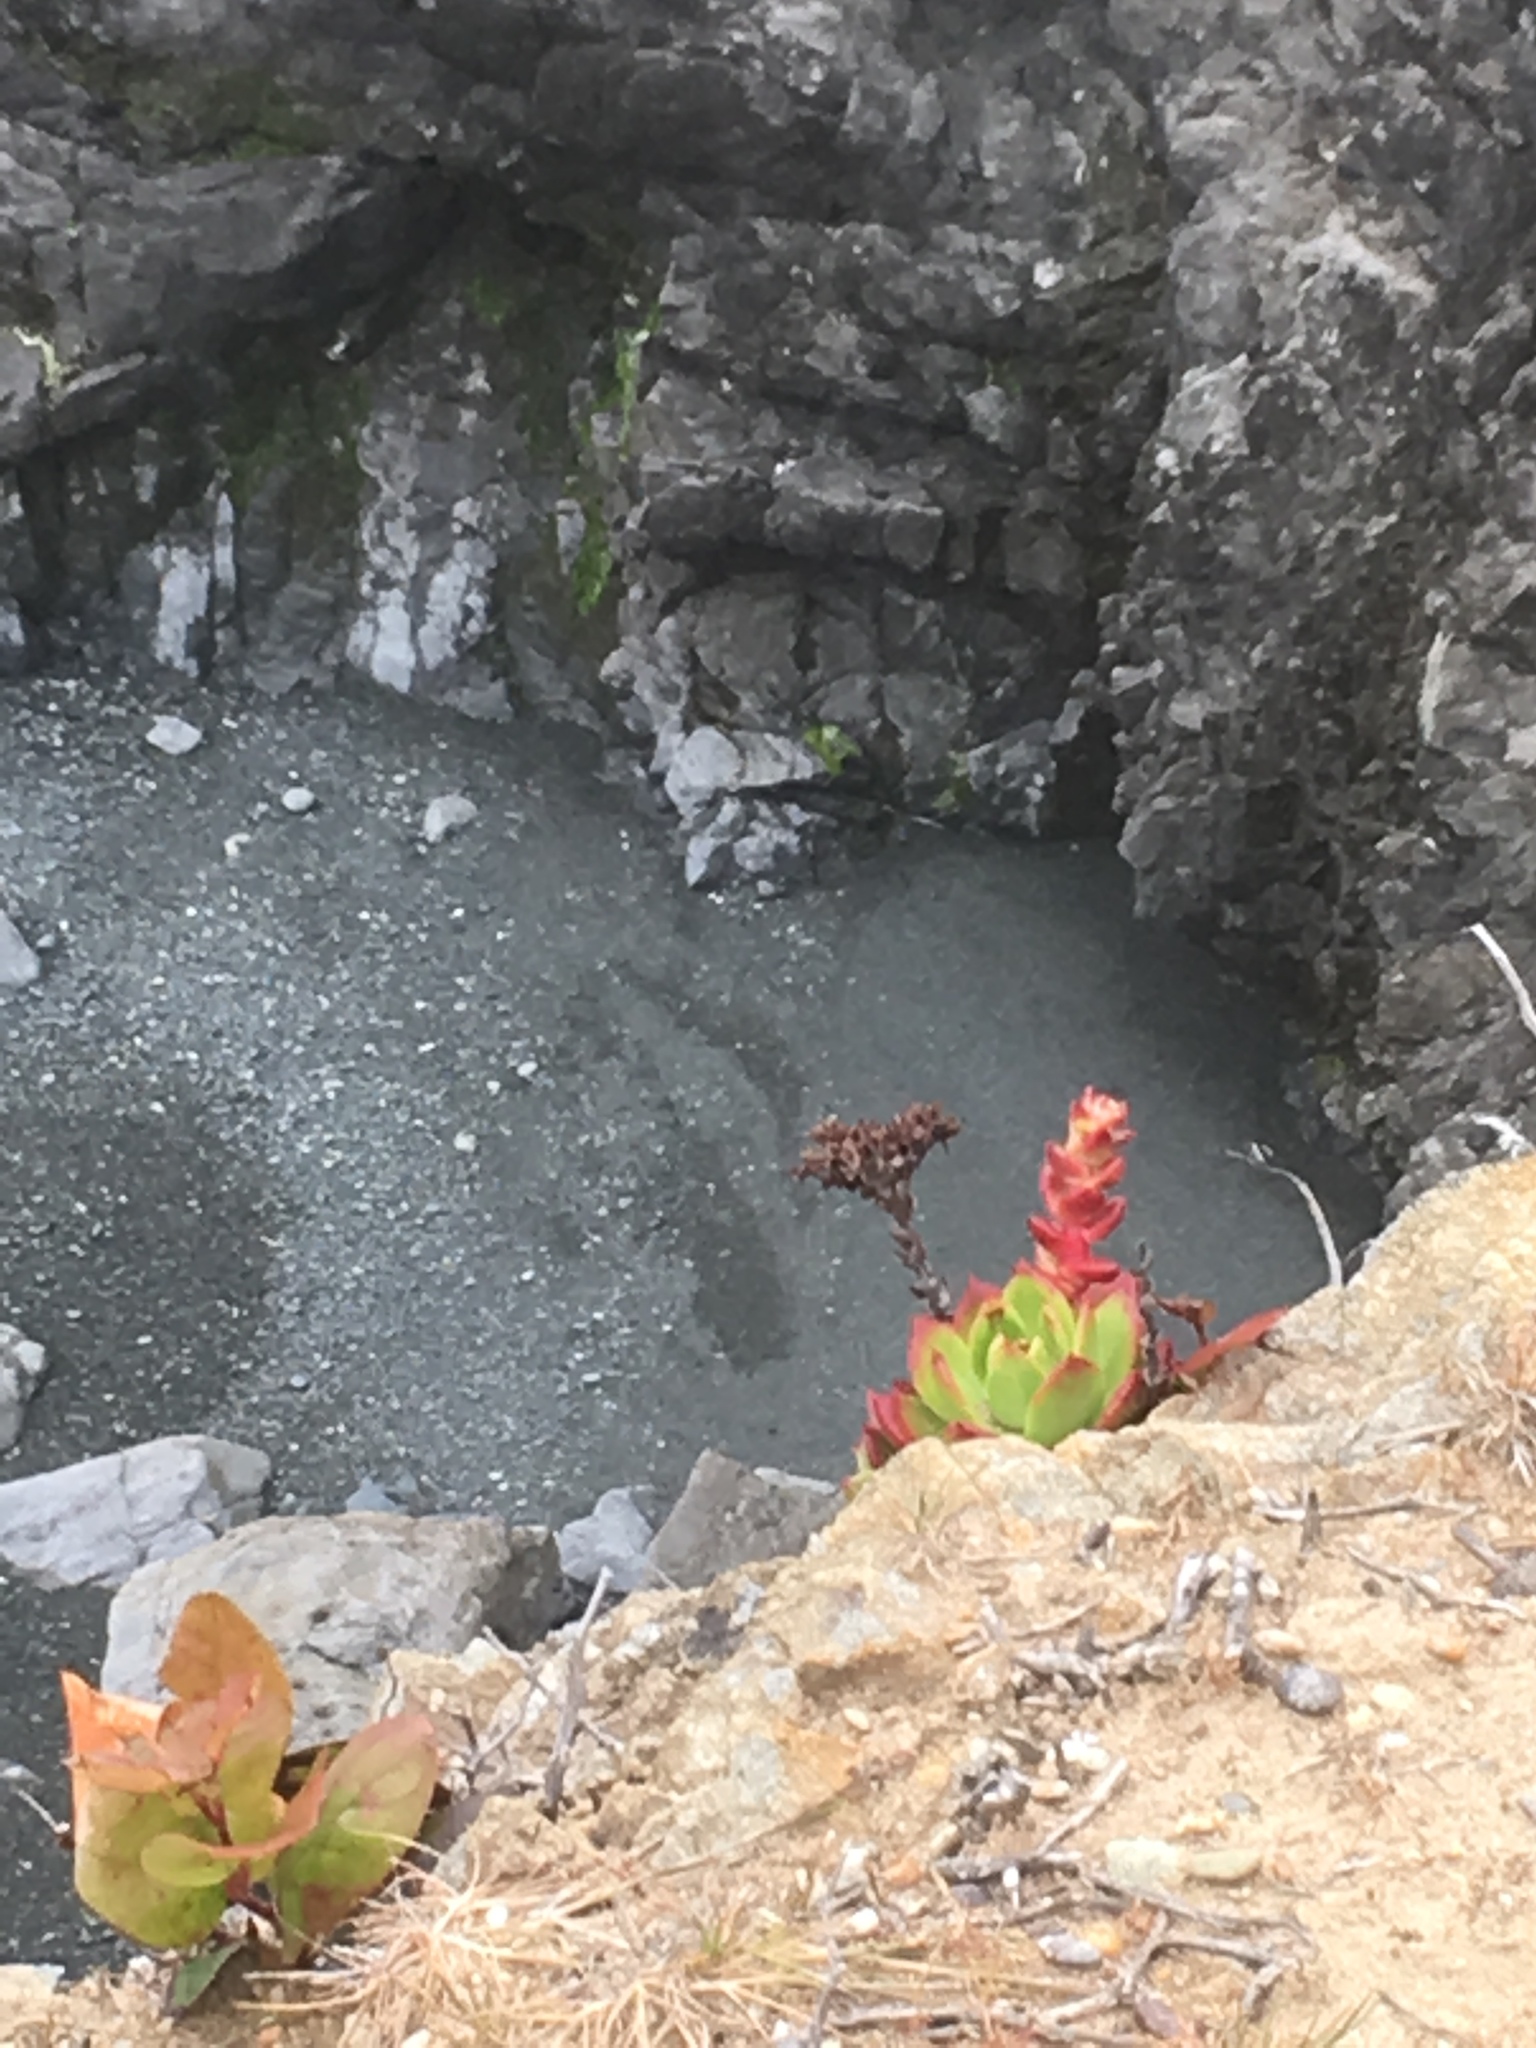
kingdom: Plantae
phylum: Tracheophyta
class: Magnoliopsida
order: Saxifragales
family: Crassulaceae
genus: Dudleya
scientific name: Dudleya farinosa
